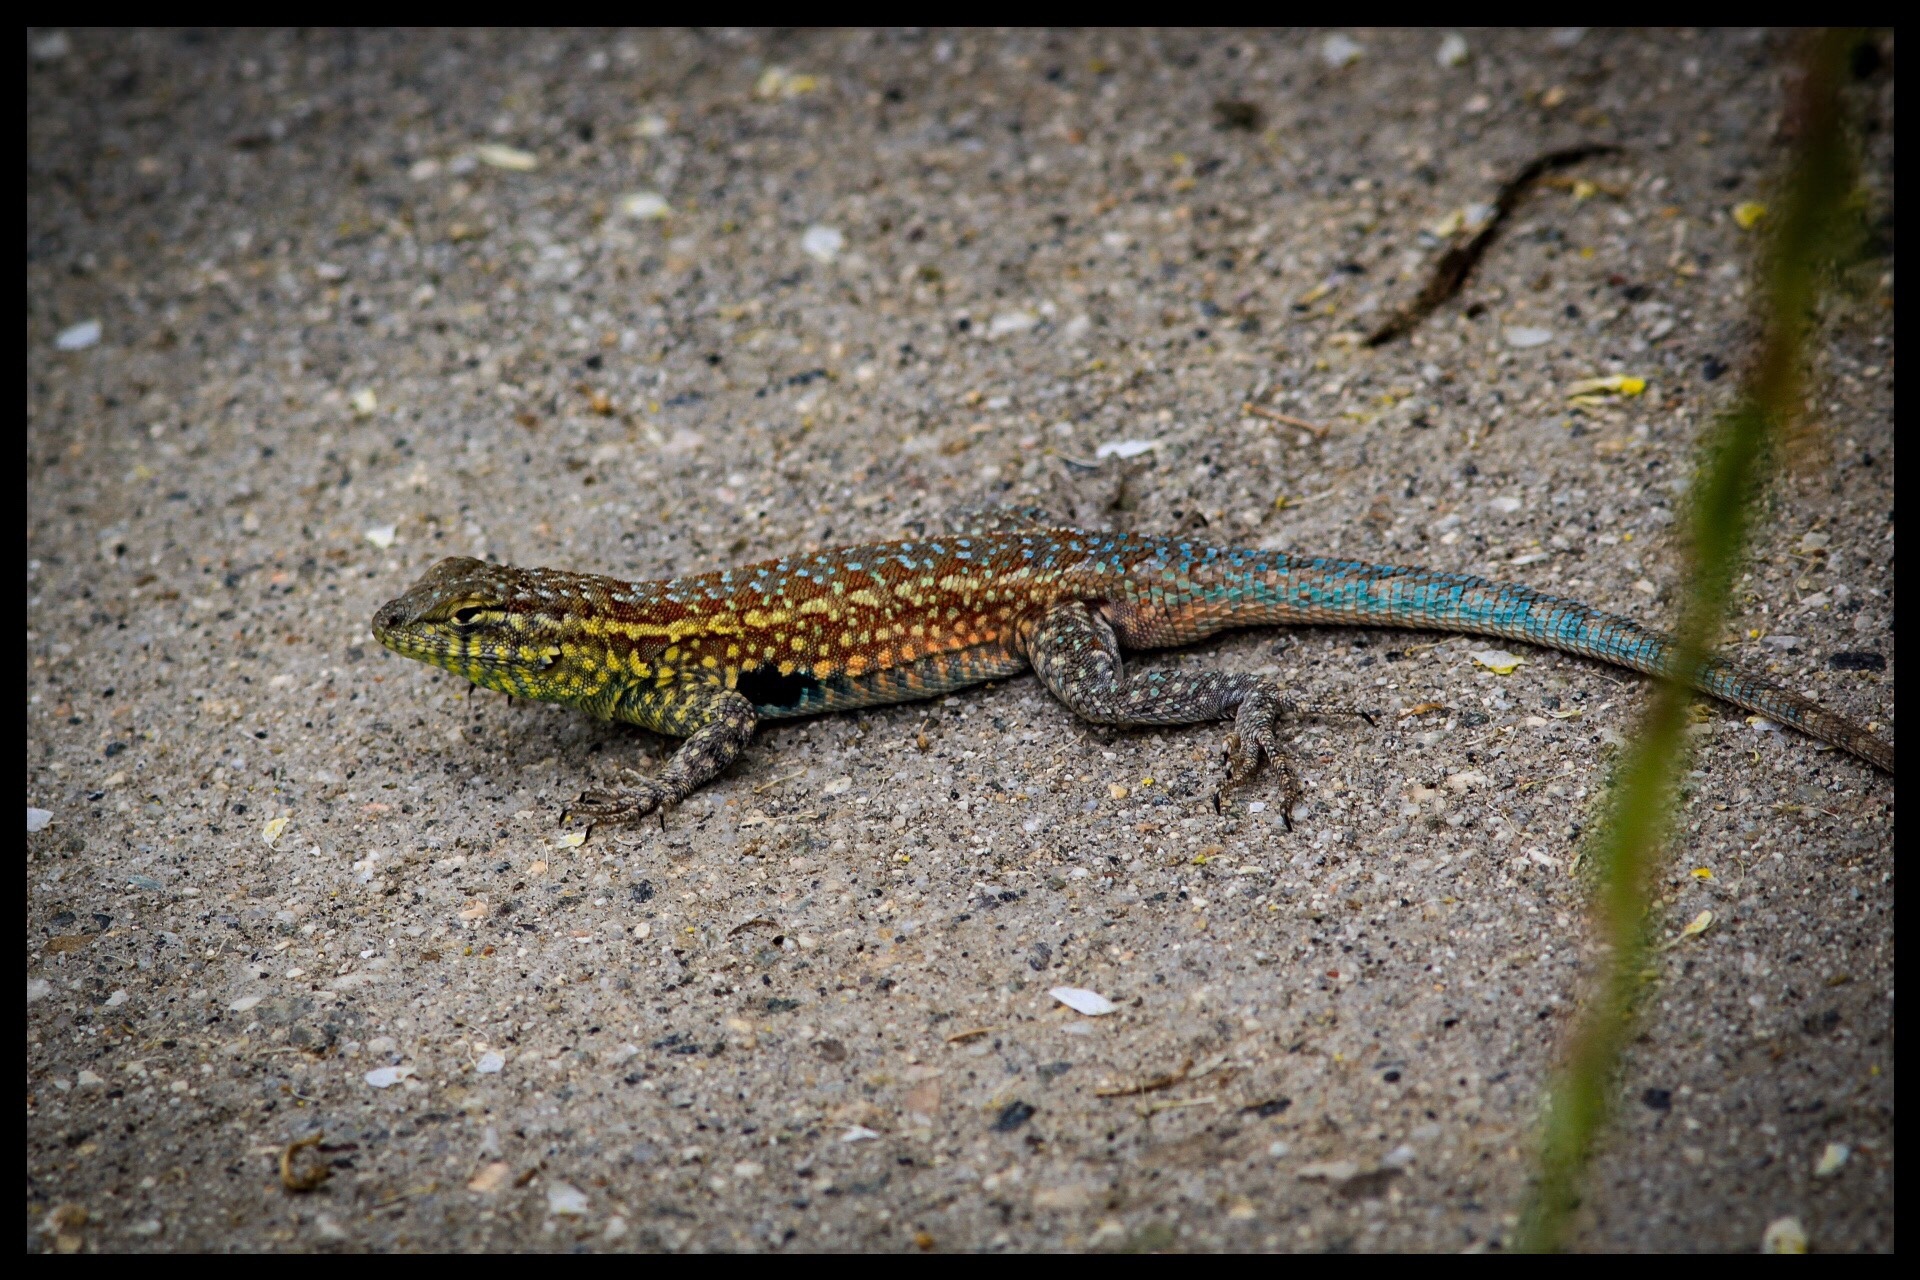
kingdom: Animalia
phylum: Chordata
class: Squamata
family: Phrynosomatidae
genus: Uta
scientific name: Uta stansburiana
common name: Side-blotched lizard
